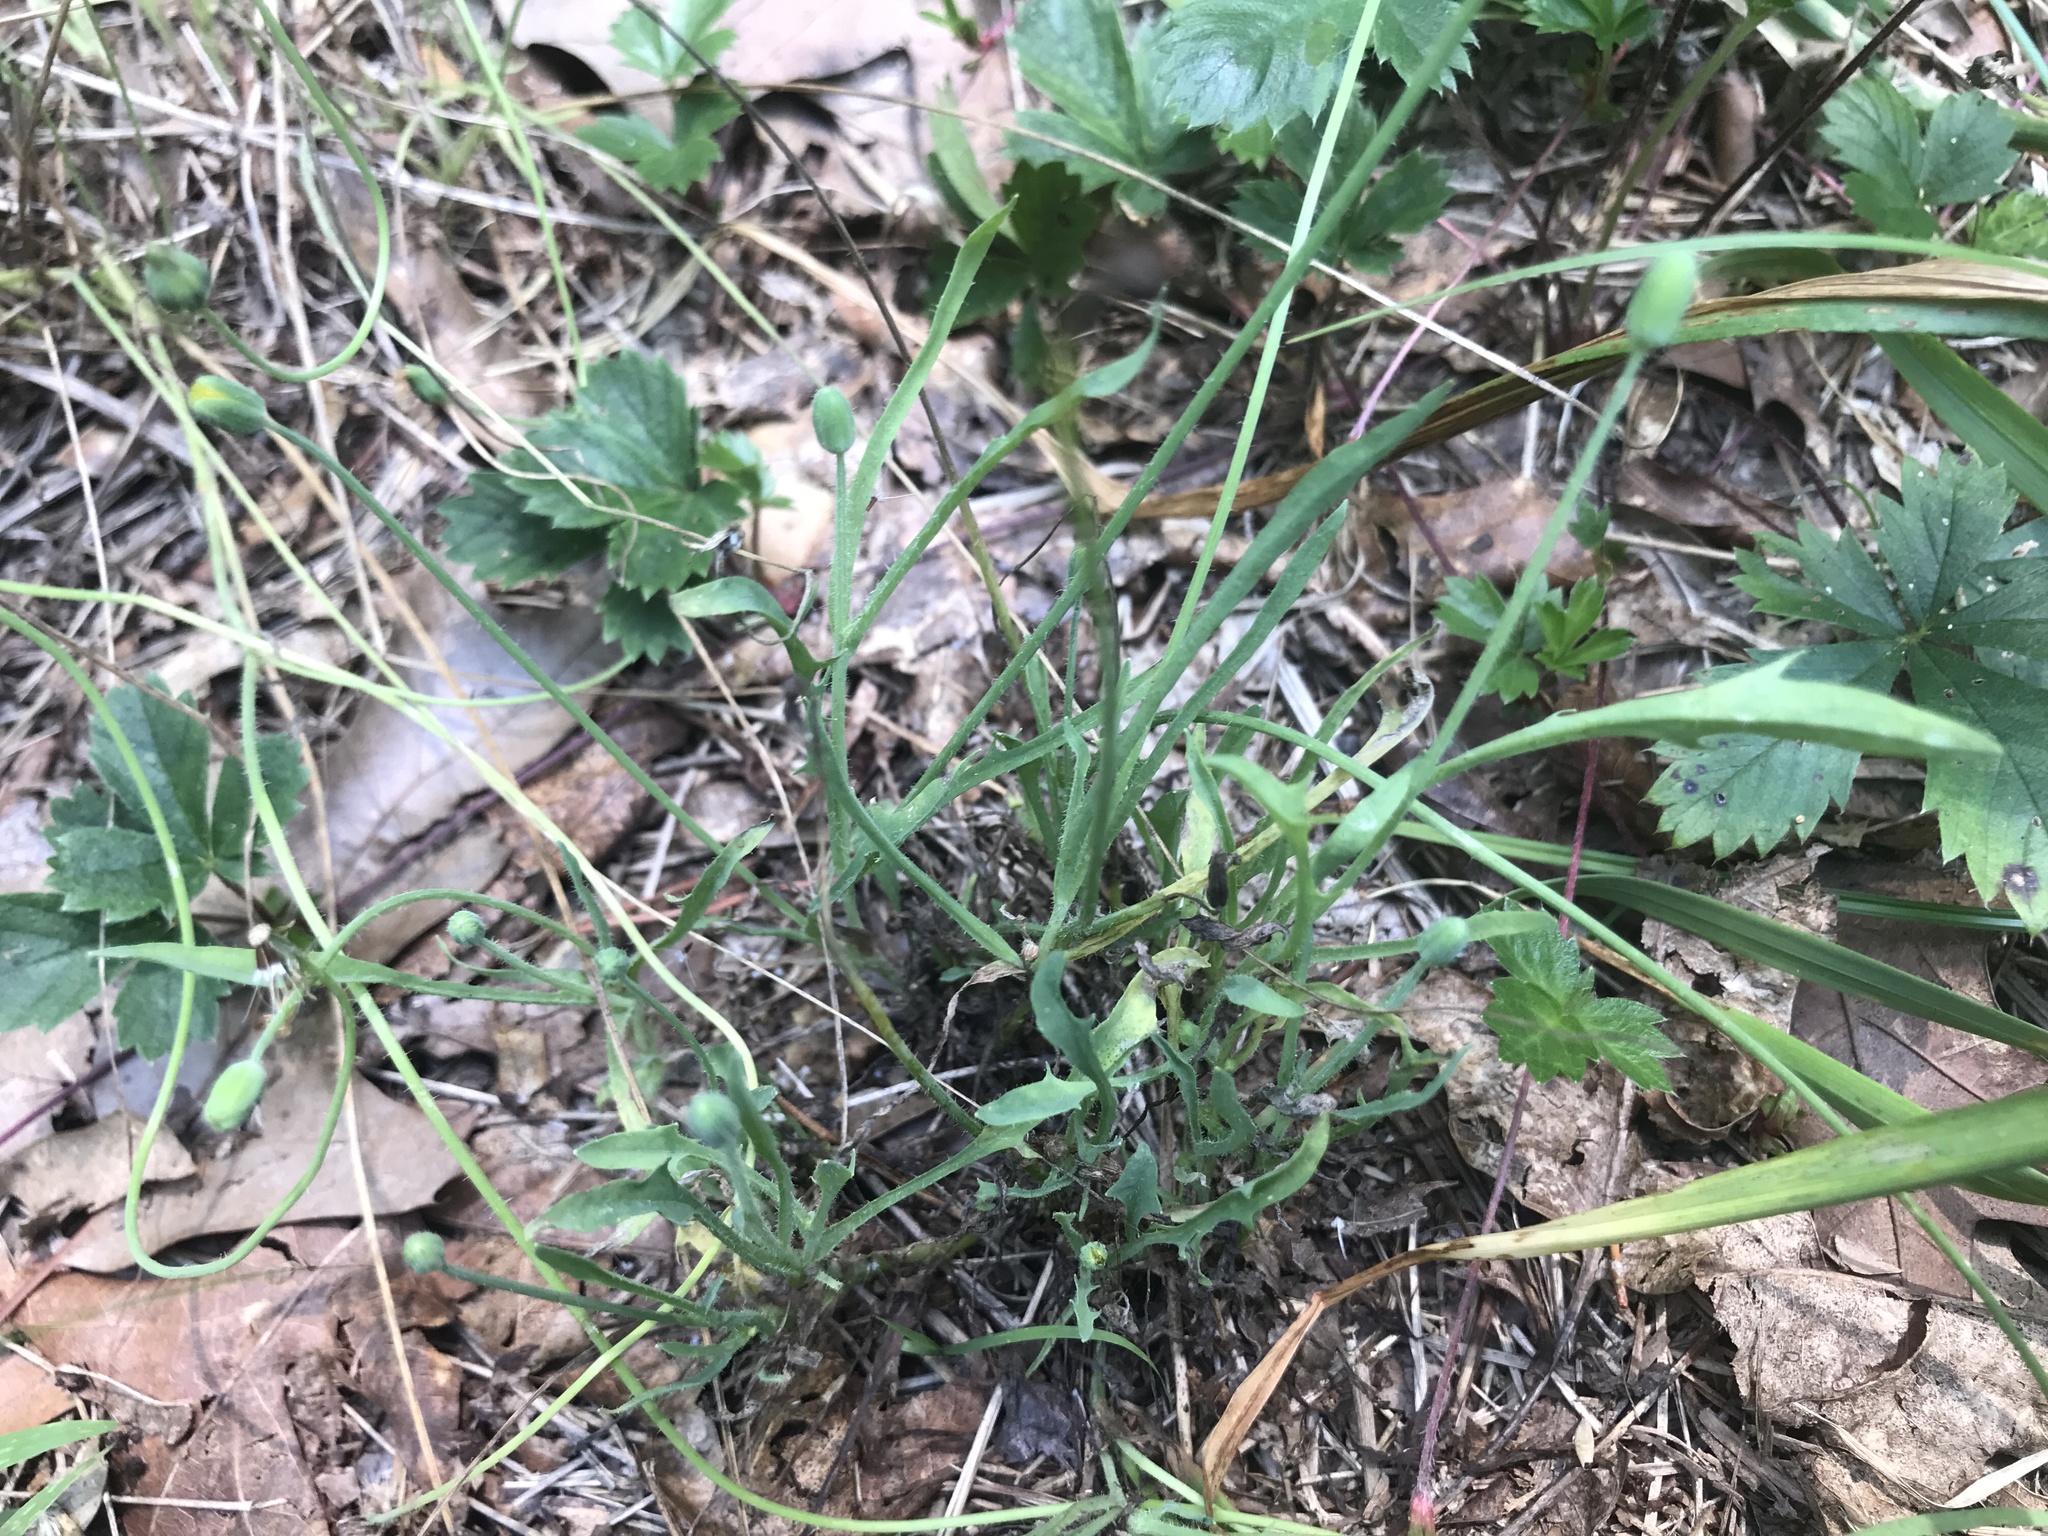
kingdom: Plantae
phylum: Tracheophyta
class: Magnoliopsida
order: Asterales
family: Asteraceae
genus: Krigia
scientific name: Krigia virginica
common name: Virginia dwarf-dandelion
